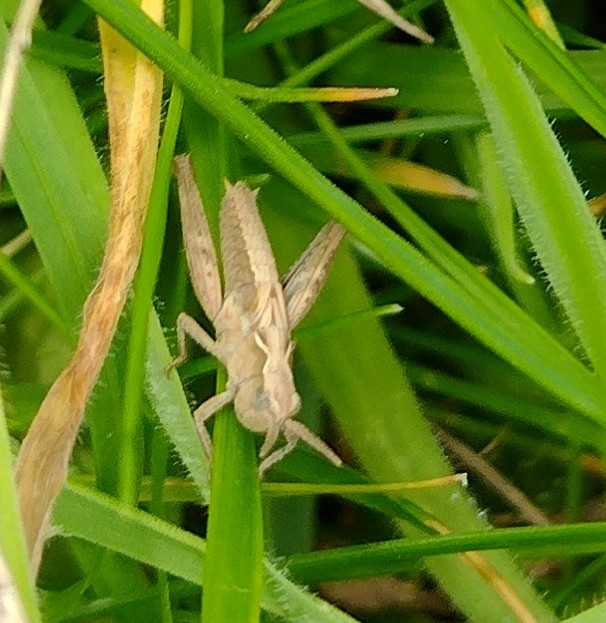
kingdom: Animalia
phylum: Arthropoda
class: Insecta
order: Orthoptera
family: Acrididae
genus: Chorthippus
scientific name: Chorthippus brunneus
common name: Field grasshopper
